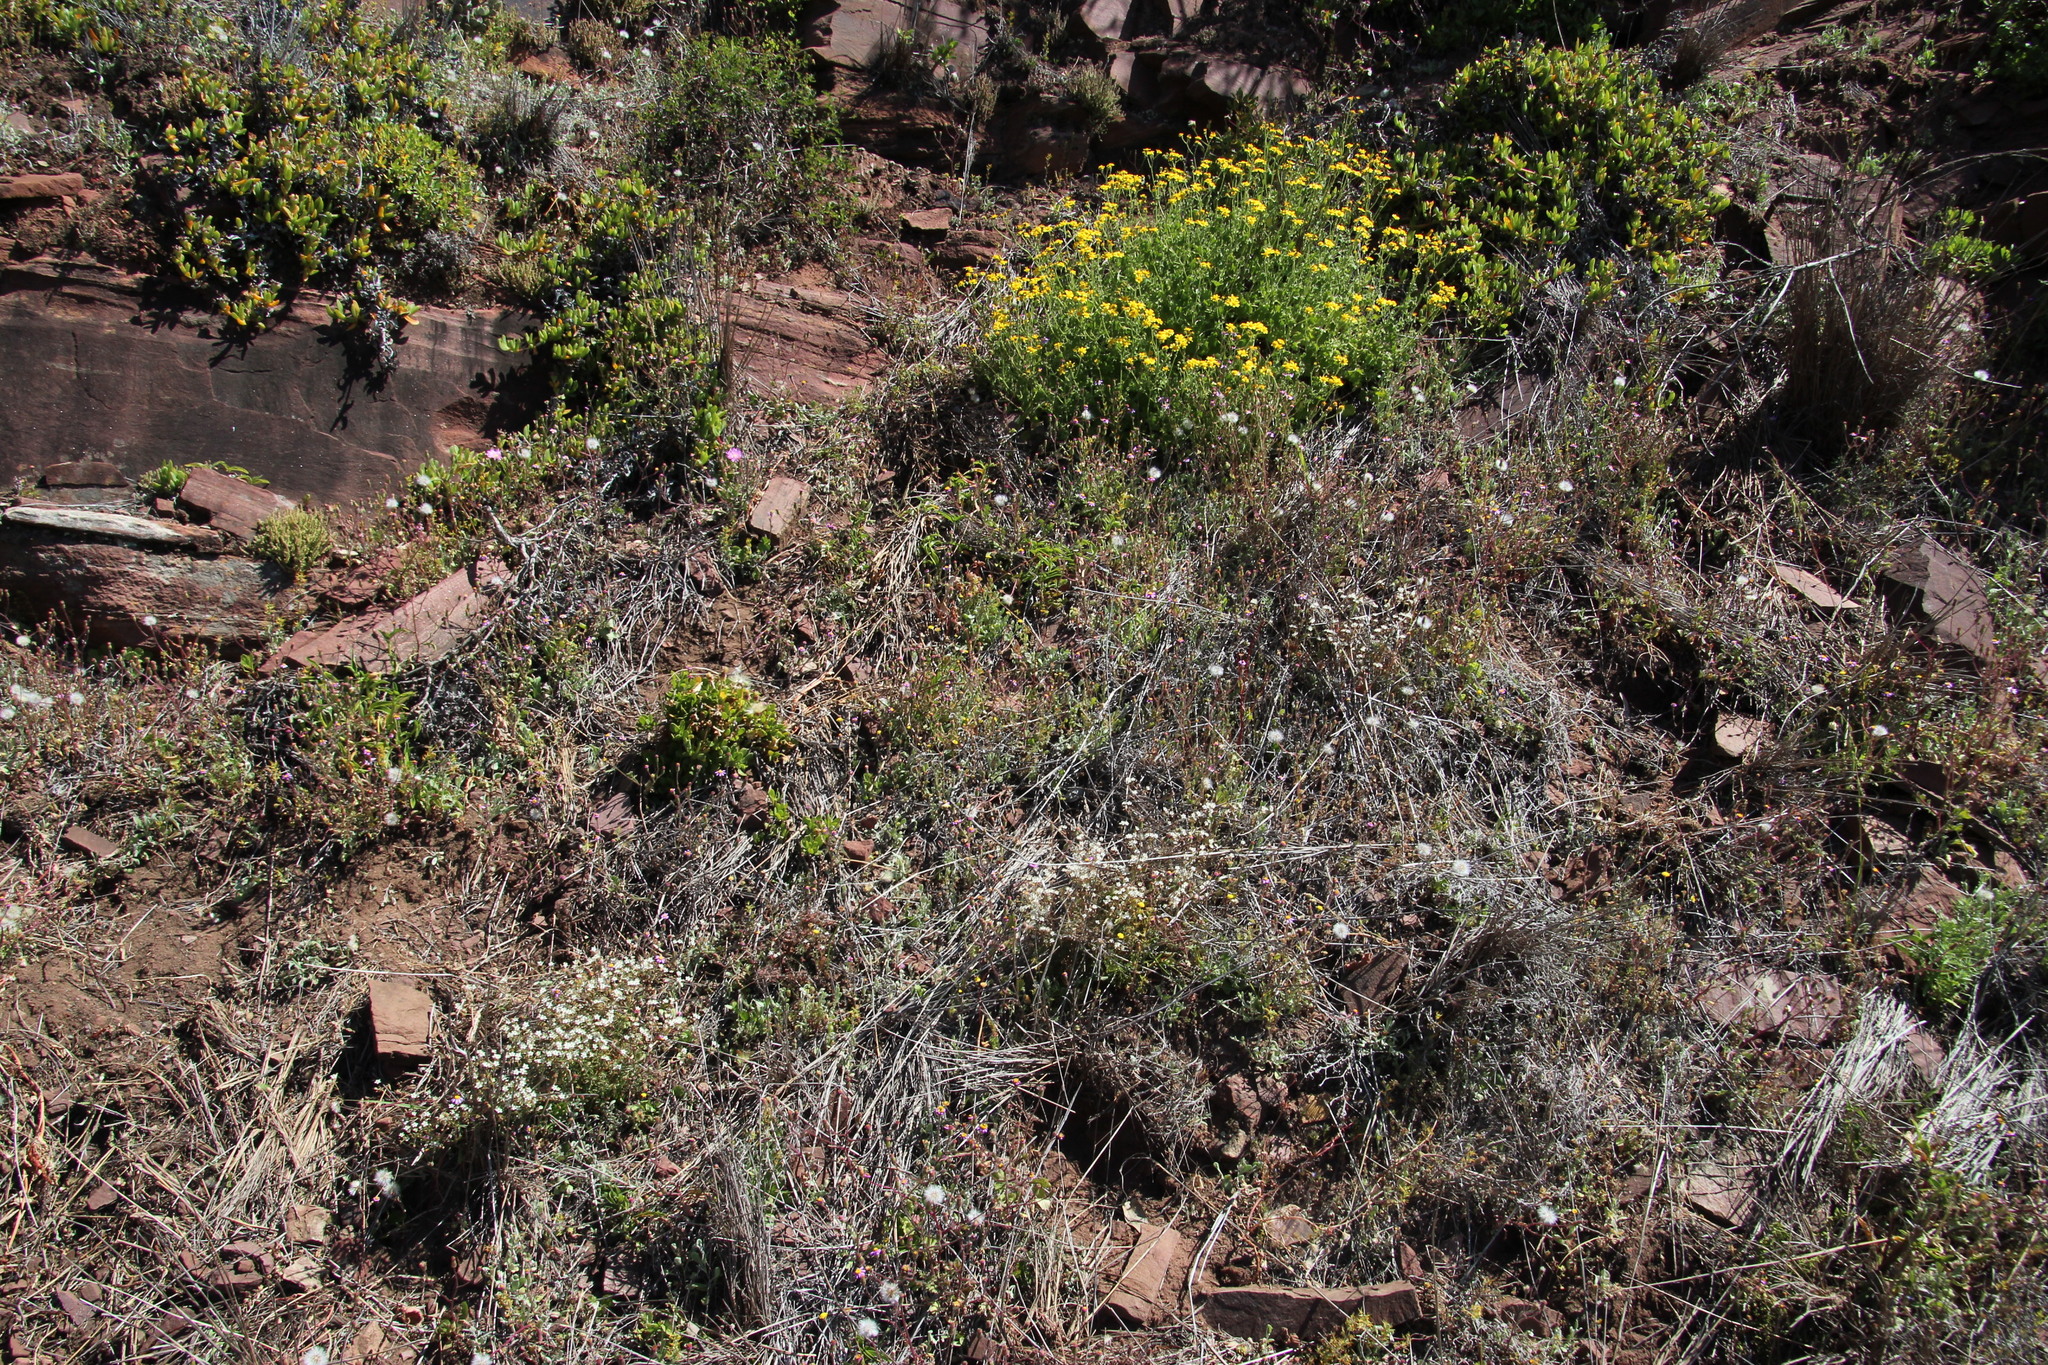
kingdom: Plantae
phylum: Tracheophyta
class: Magnoliopsida
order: Fabales
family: Fabaceae
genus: Acacia
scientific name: Acacia paradoxa
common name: Paradox acacia
